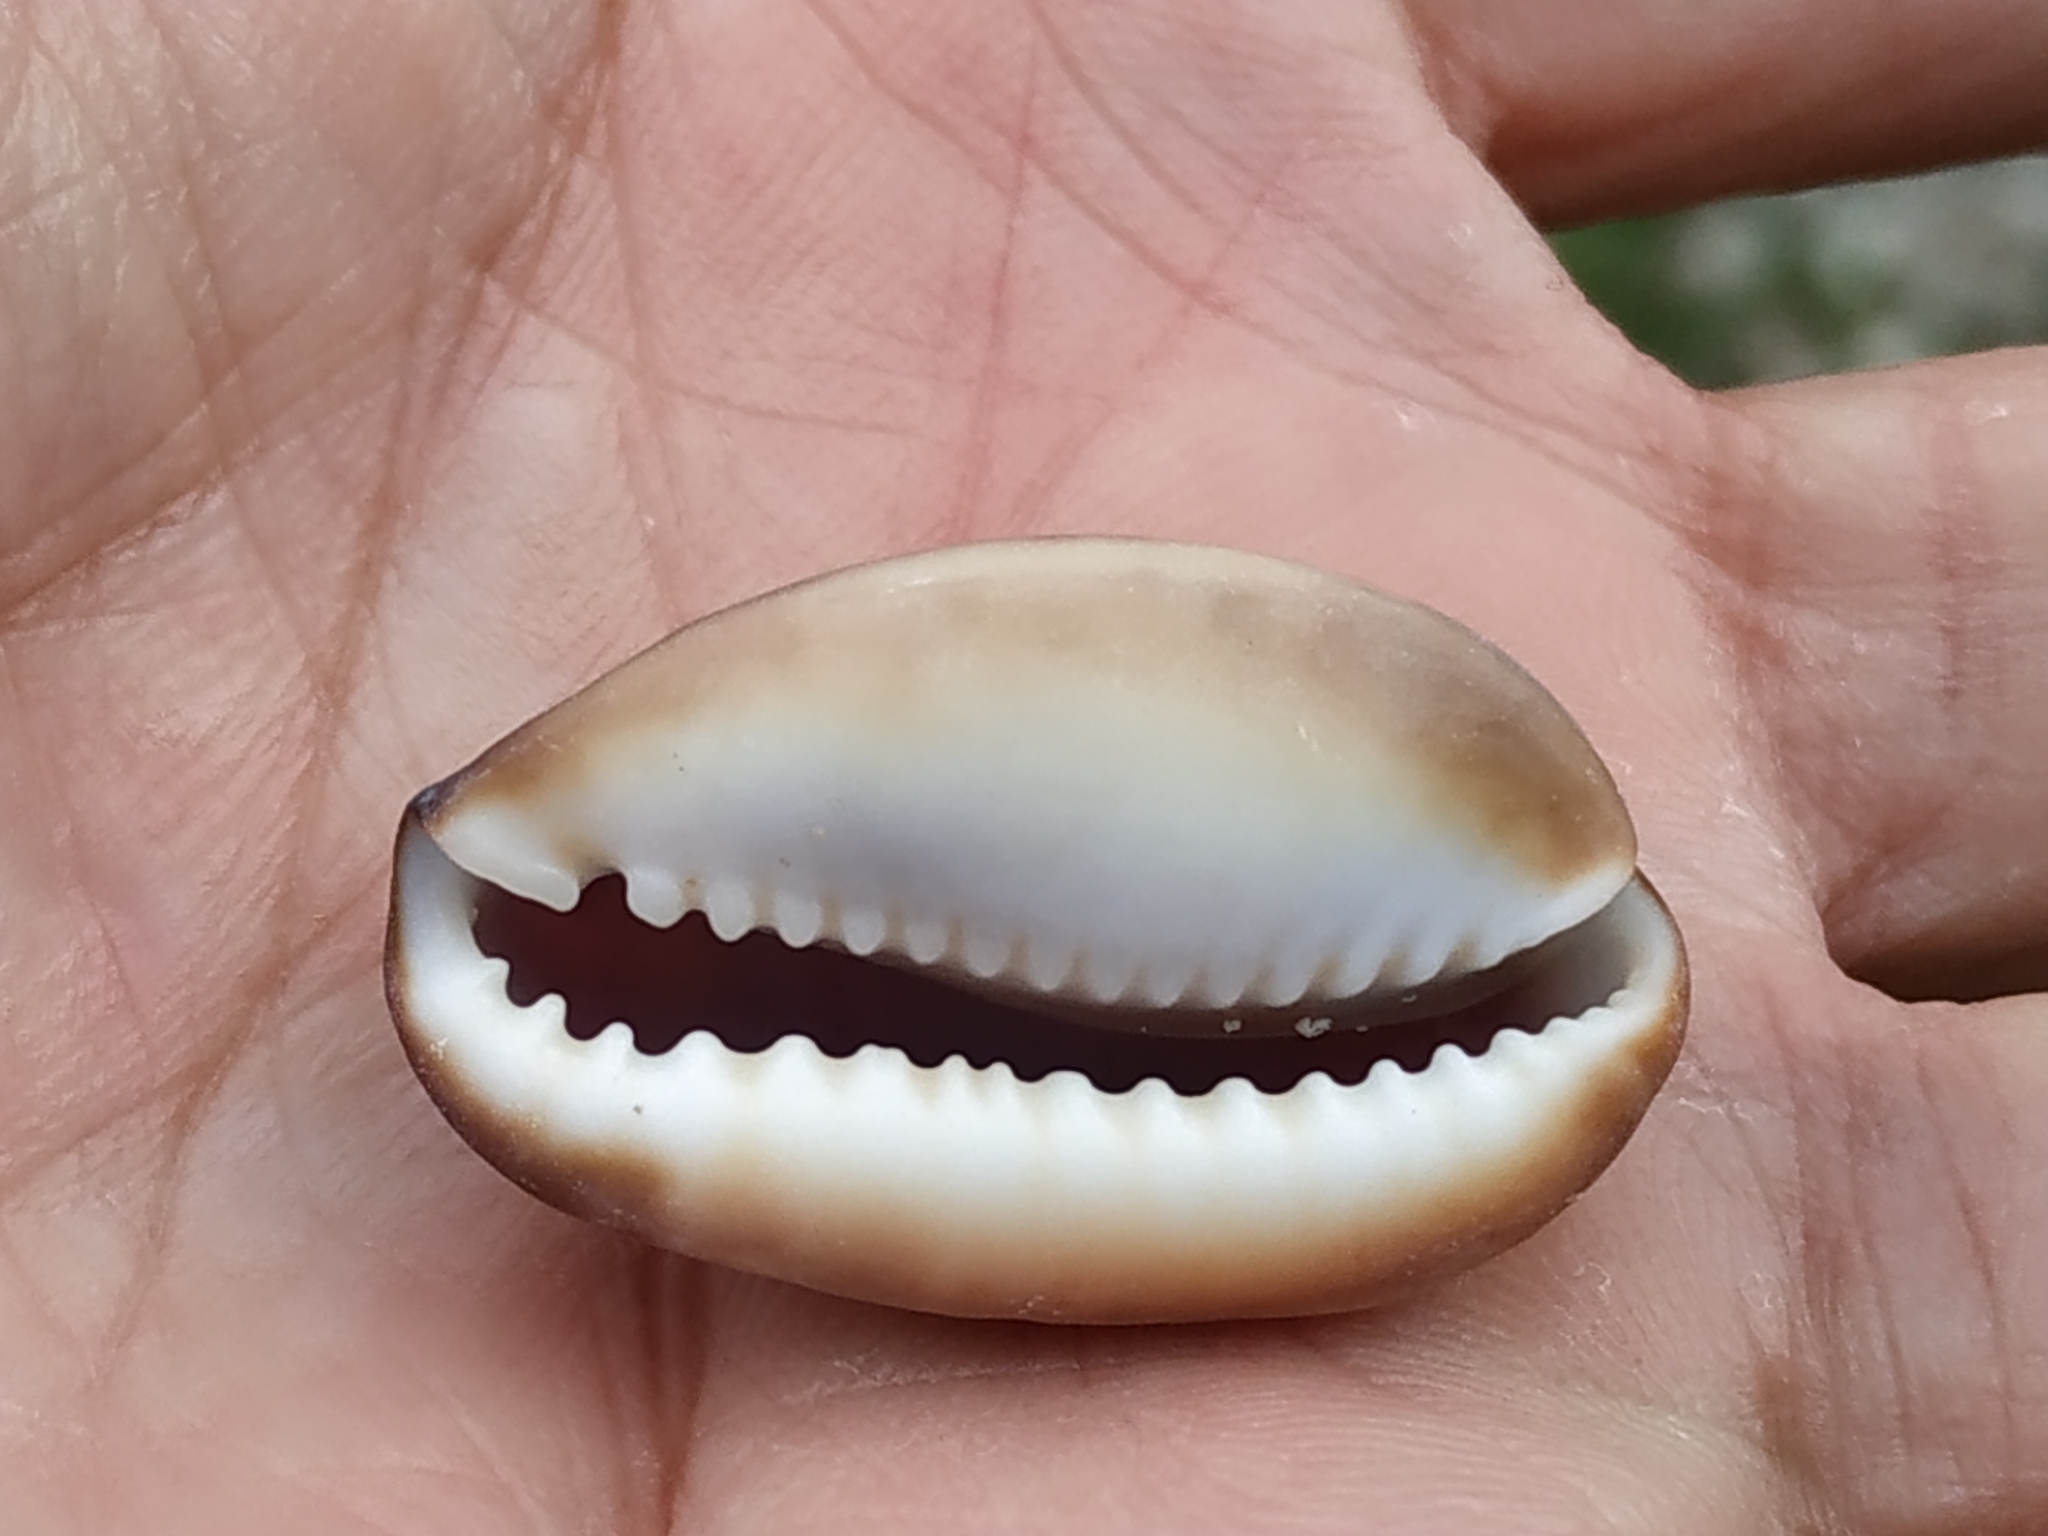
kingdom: Animalia
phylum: Mollusca
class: Gastropoda
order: Littorinimorpha
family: Cypraeidae
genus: Monetaria
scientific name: Monetaria caputserpentis
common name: Serpent's head cowrie
